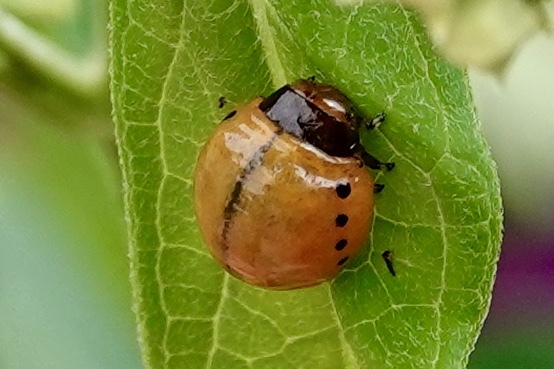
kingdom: Animalia
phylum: Arthropoda
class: Insecta
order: Coleoptera
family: Chrysomelidae
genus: Labidomera
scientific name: Labidomera clivicollis
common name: Swamp milkweed leaf beetle
